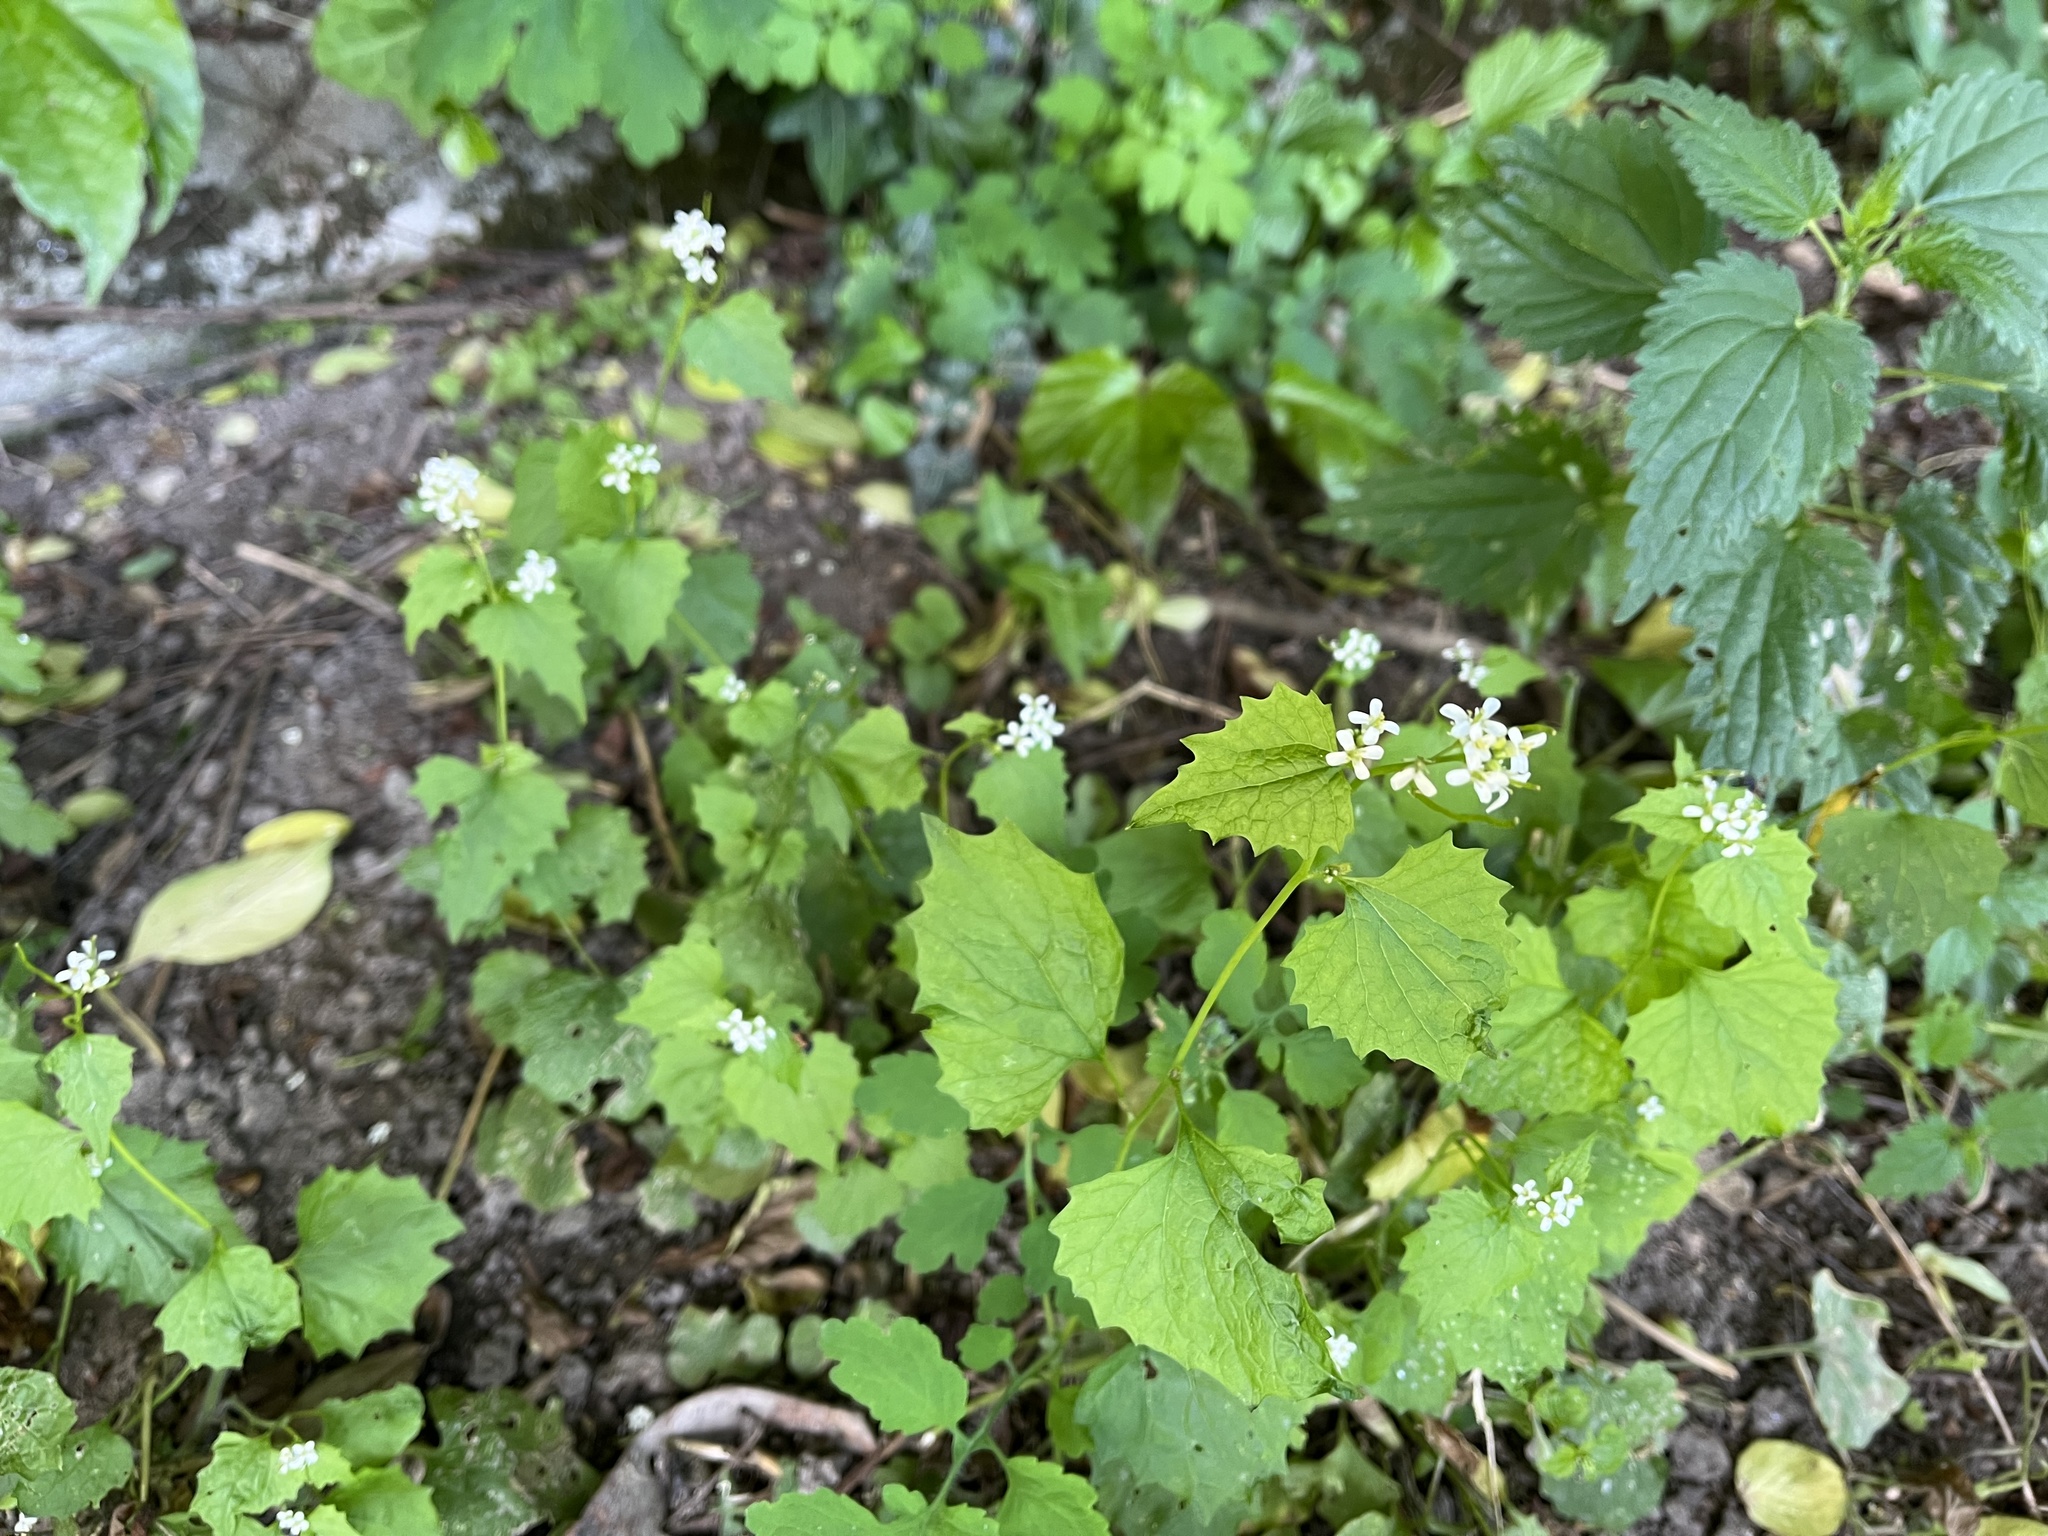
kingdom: Plantae
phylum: Tracheophyta
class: Magnoliopsida
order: Brassicales
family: Brassicaceae
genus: Alliaria
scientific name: Alliaria petiolata
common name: Garlic mustard
